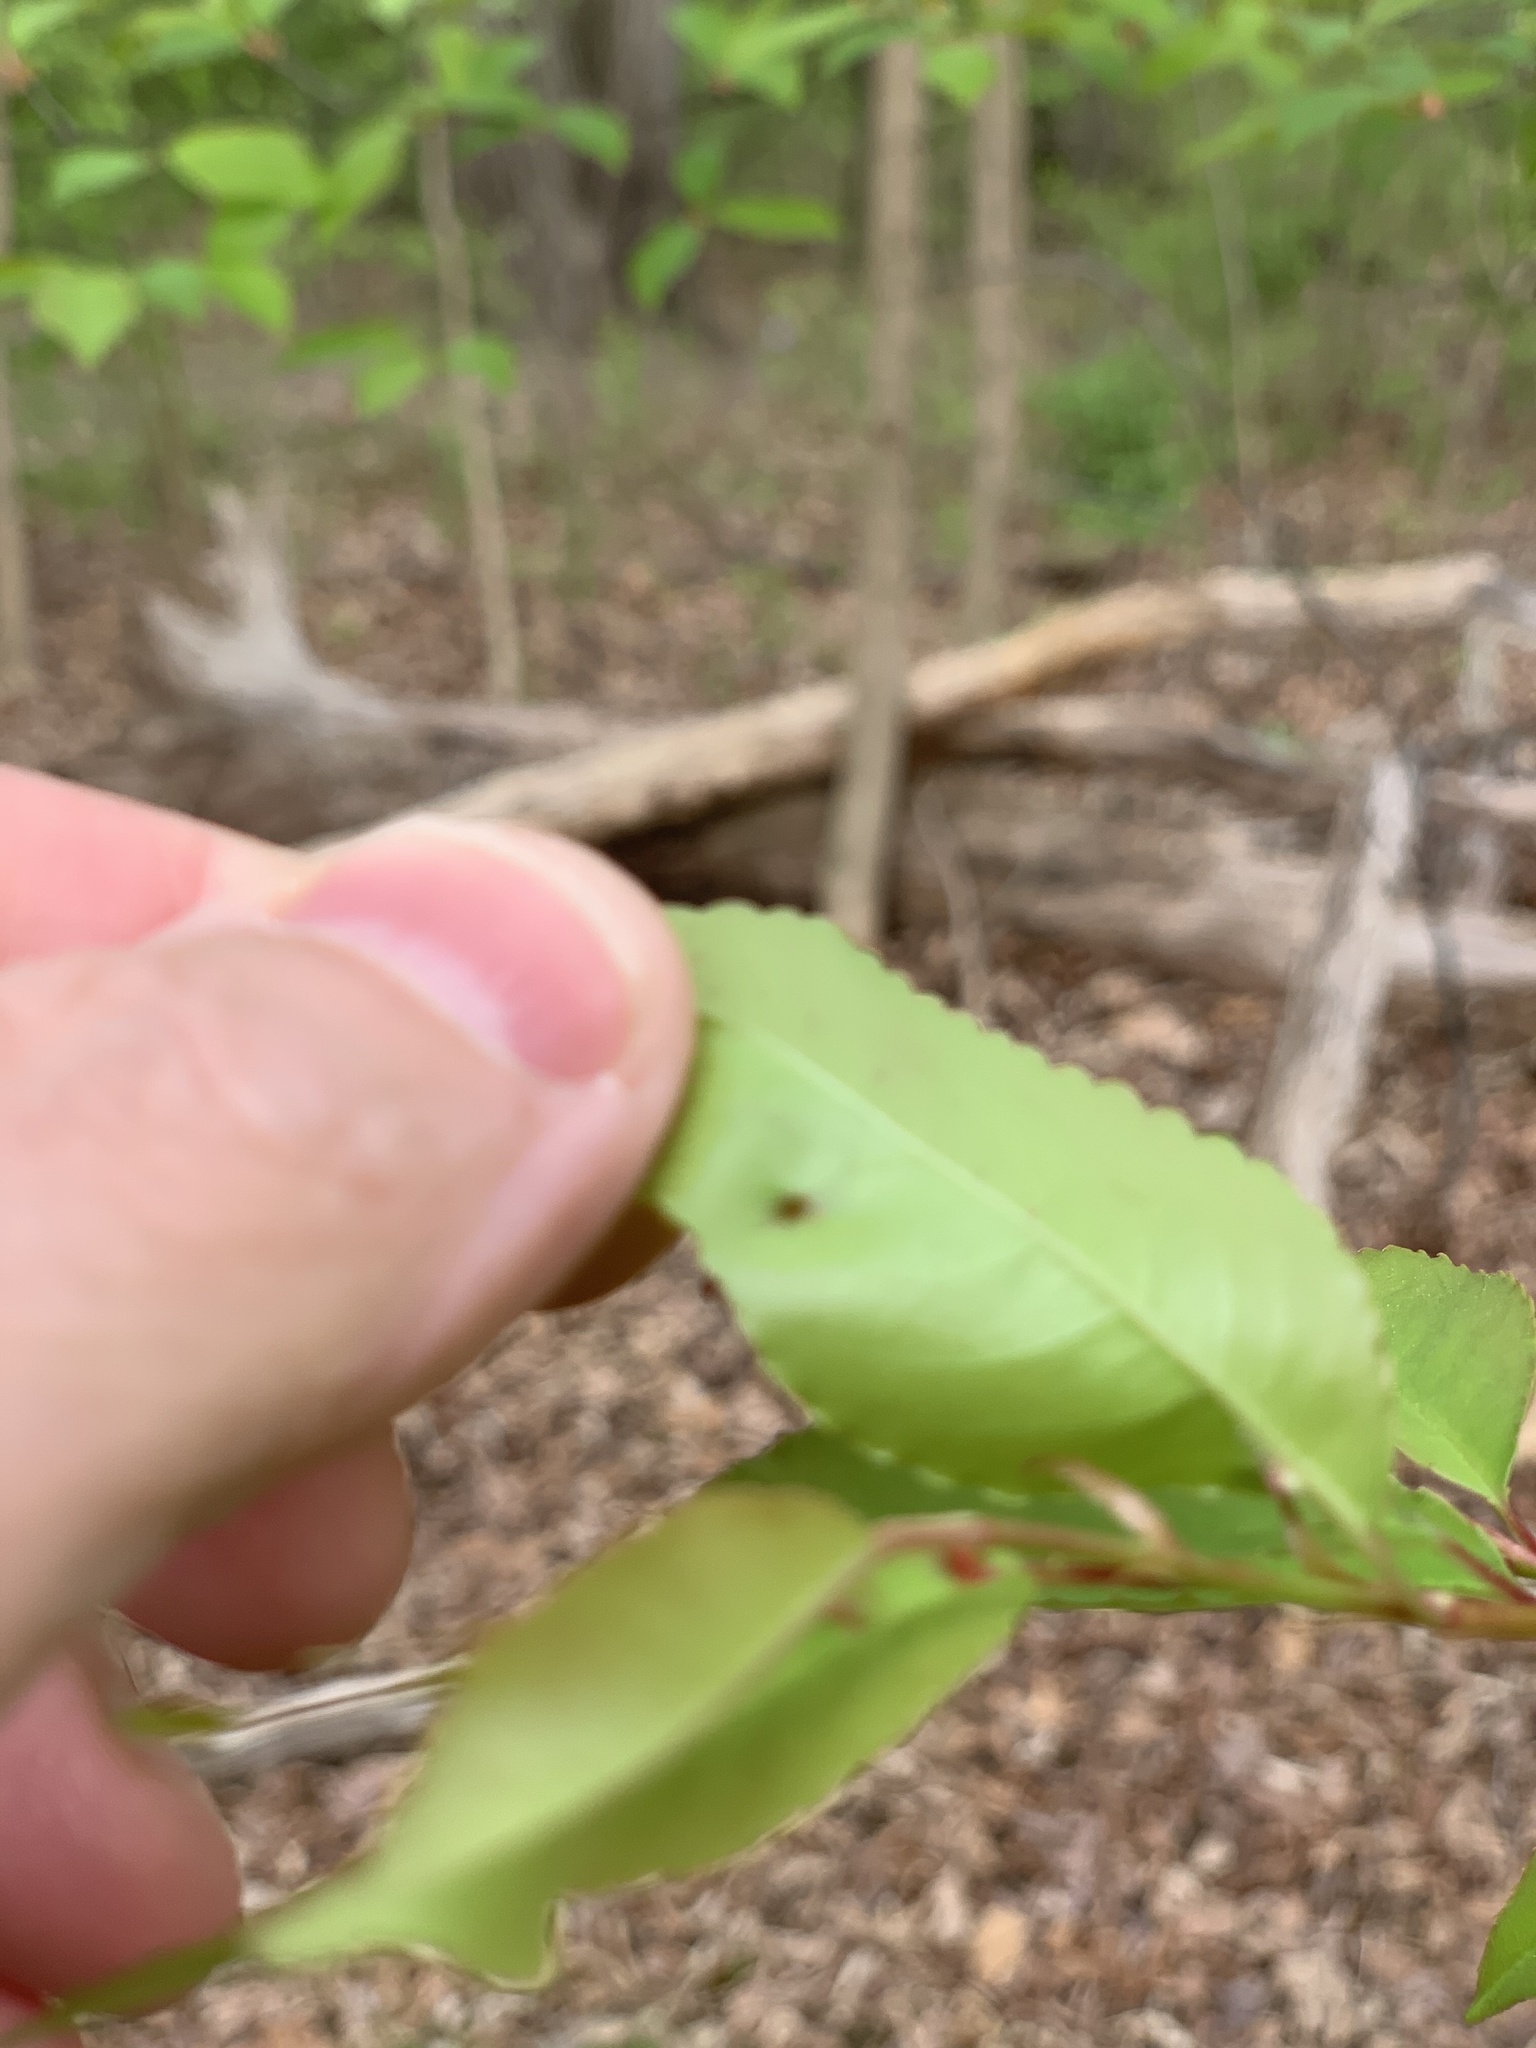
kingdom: Animalia
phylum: Arthropoda
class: Arachnida
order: Trombidiformes
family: Eriophyidae
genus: Eriophyes
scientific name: Eriophyes
